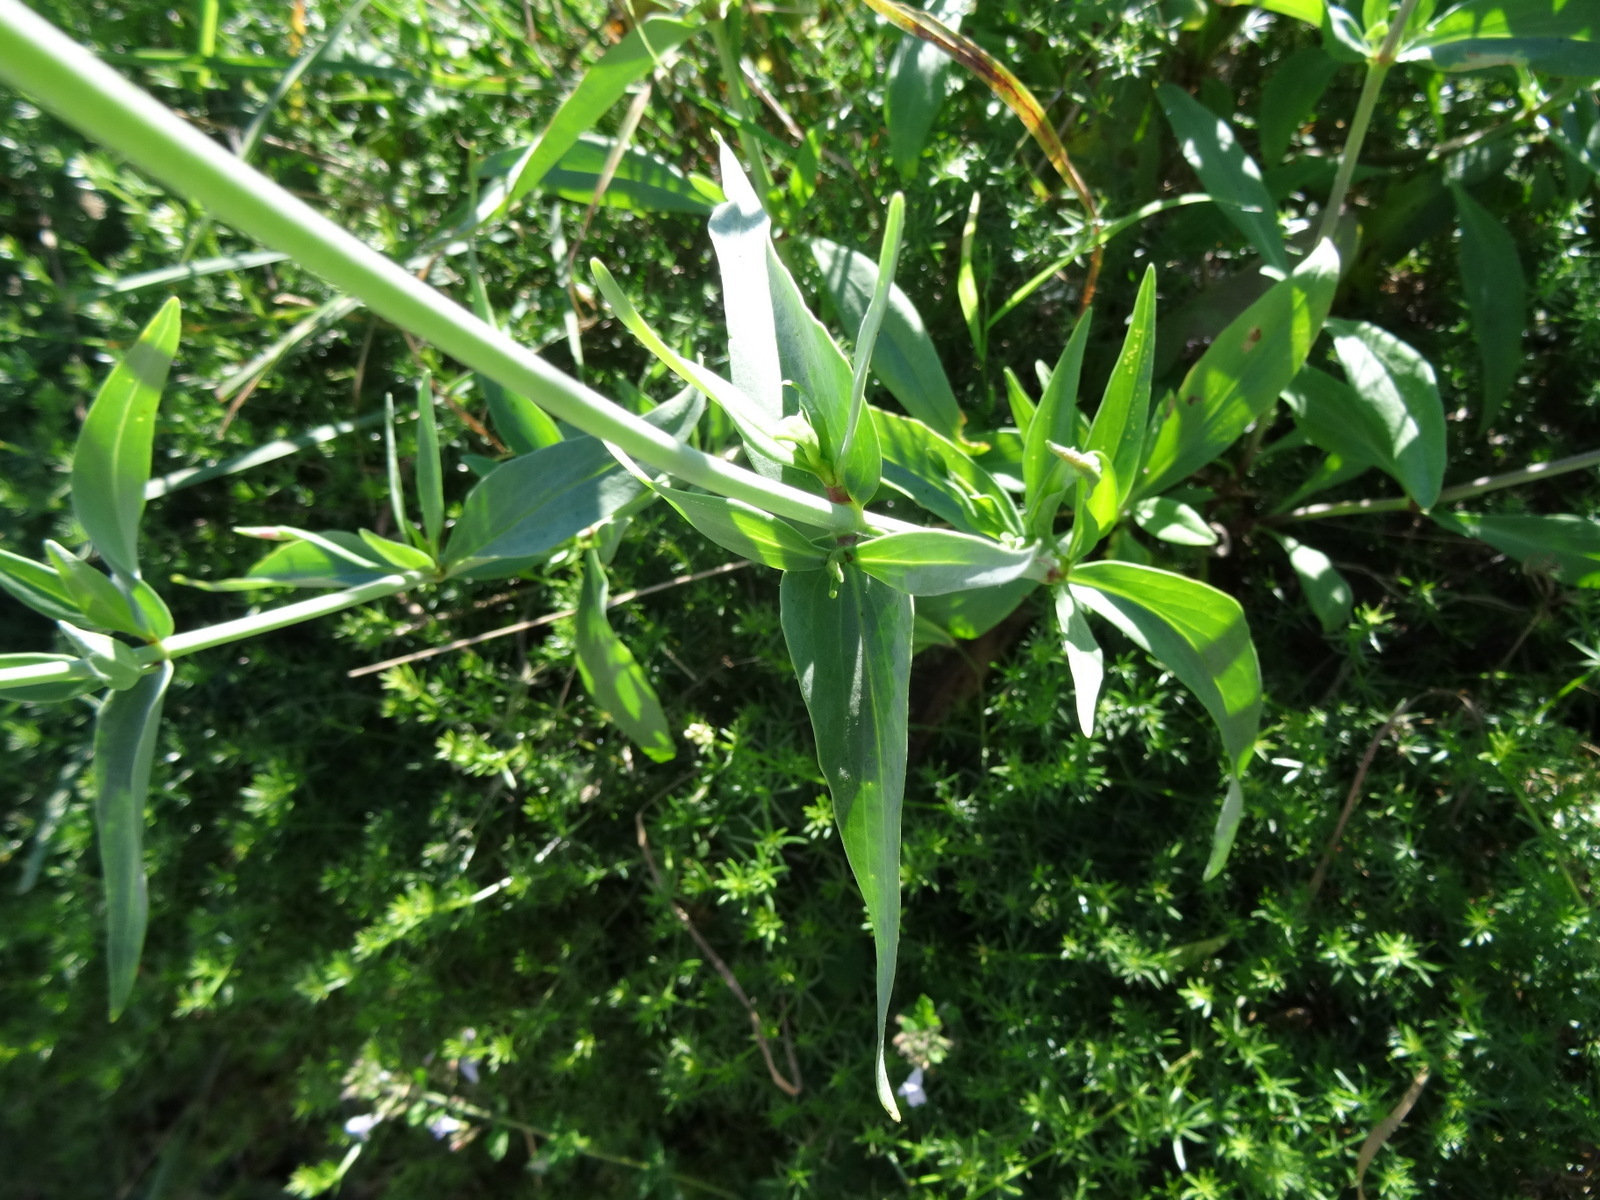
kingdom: Plantae
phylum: Tracheophyta
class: Magnoliopsida
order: Dipsacales
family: Caprifoliaceae
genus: Centranthus
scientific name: Centranthus ruber
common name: Red valerian
